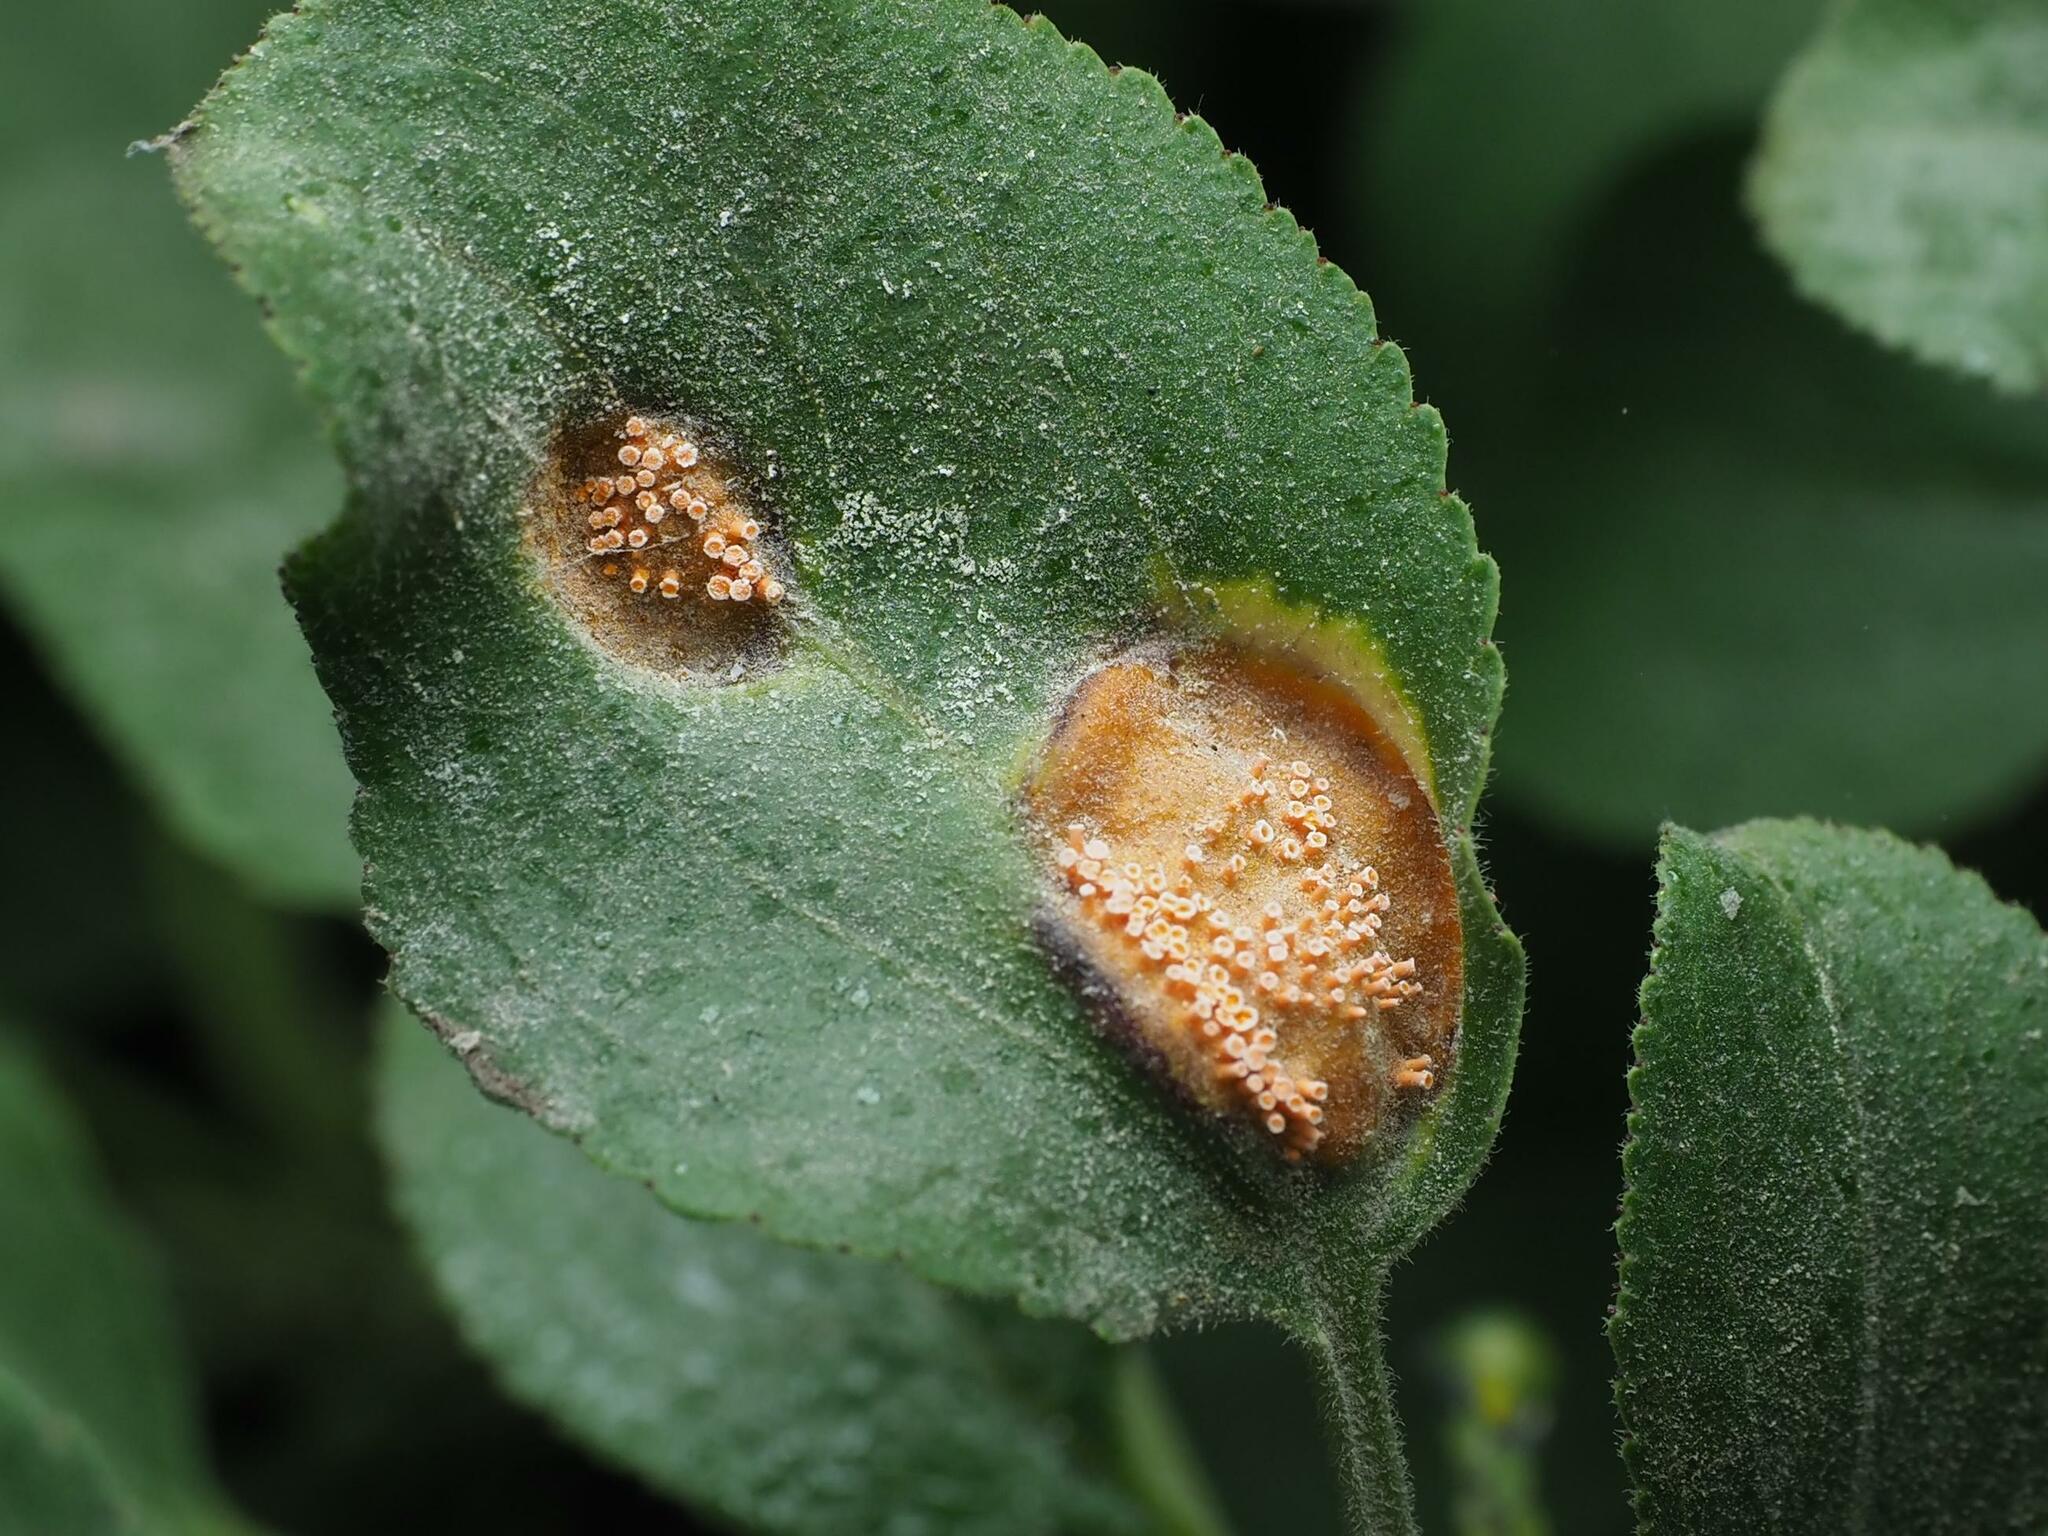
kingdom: Fungi
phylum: Basidiomycota
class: Pucciniomycetes
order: Pucciniales
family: Pucciniaceae
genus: Puccinia
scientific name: Puccinia coronata
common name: Crown rust
